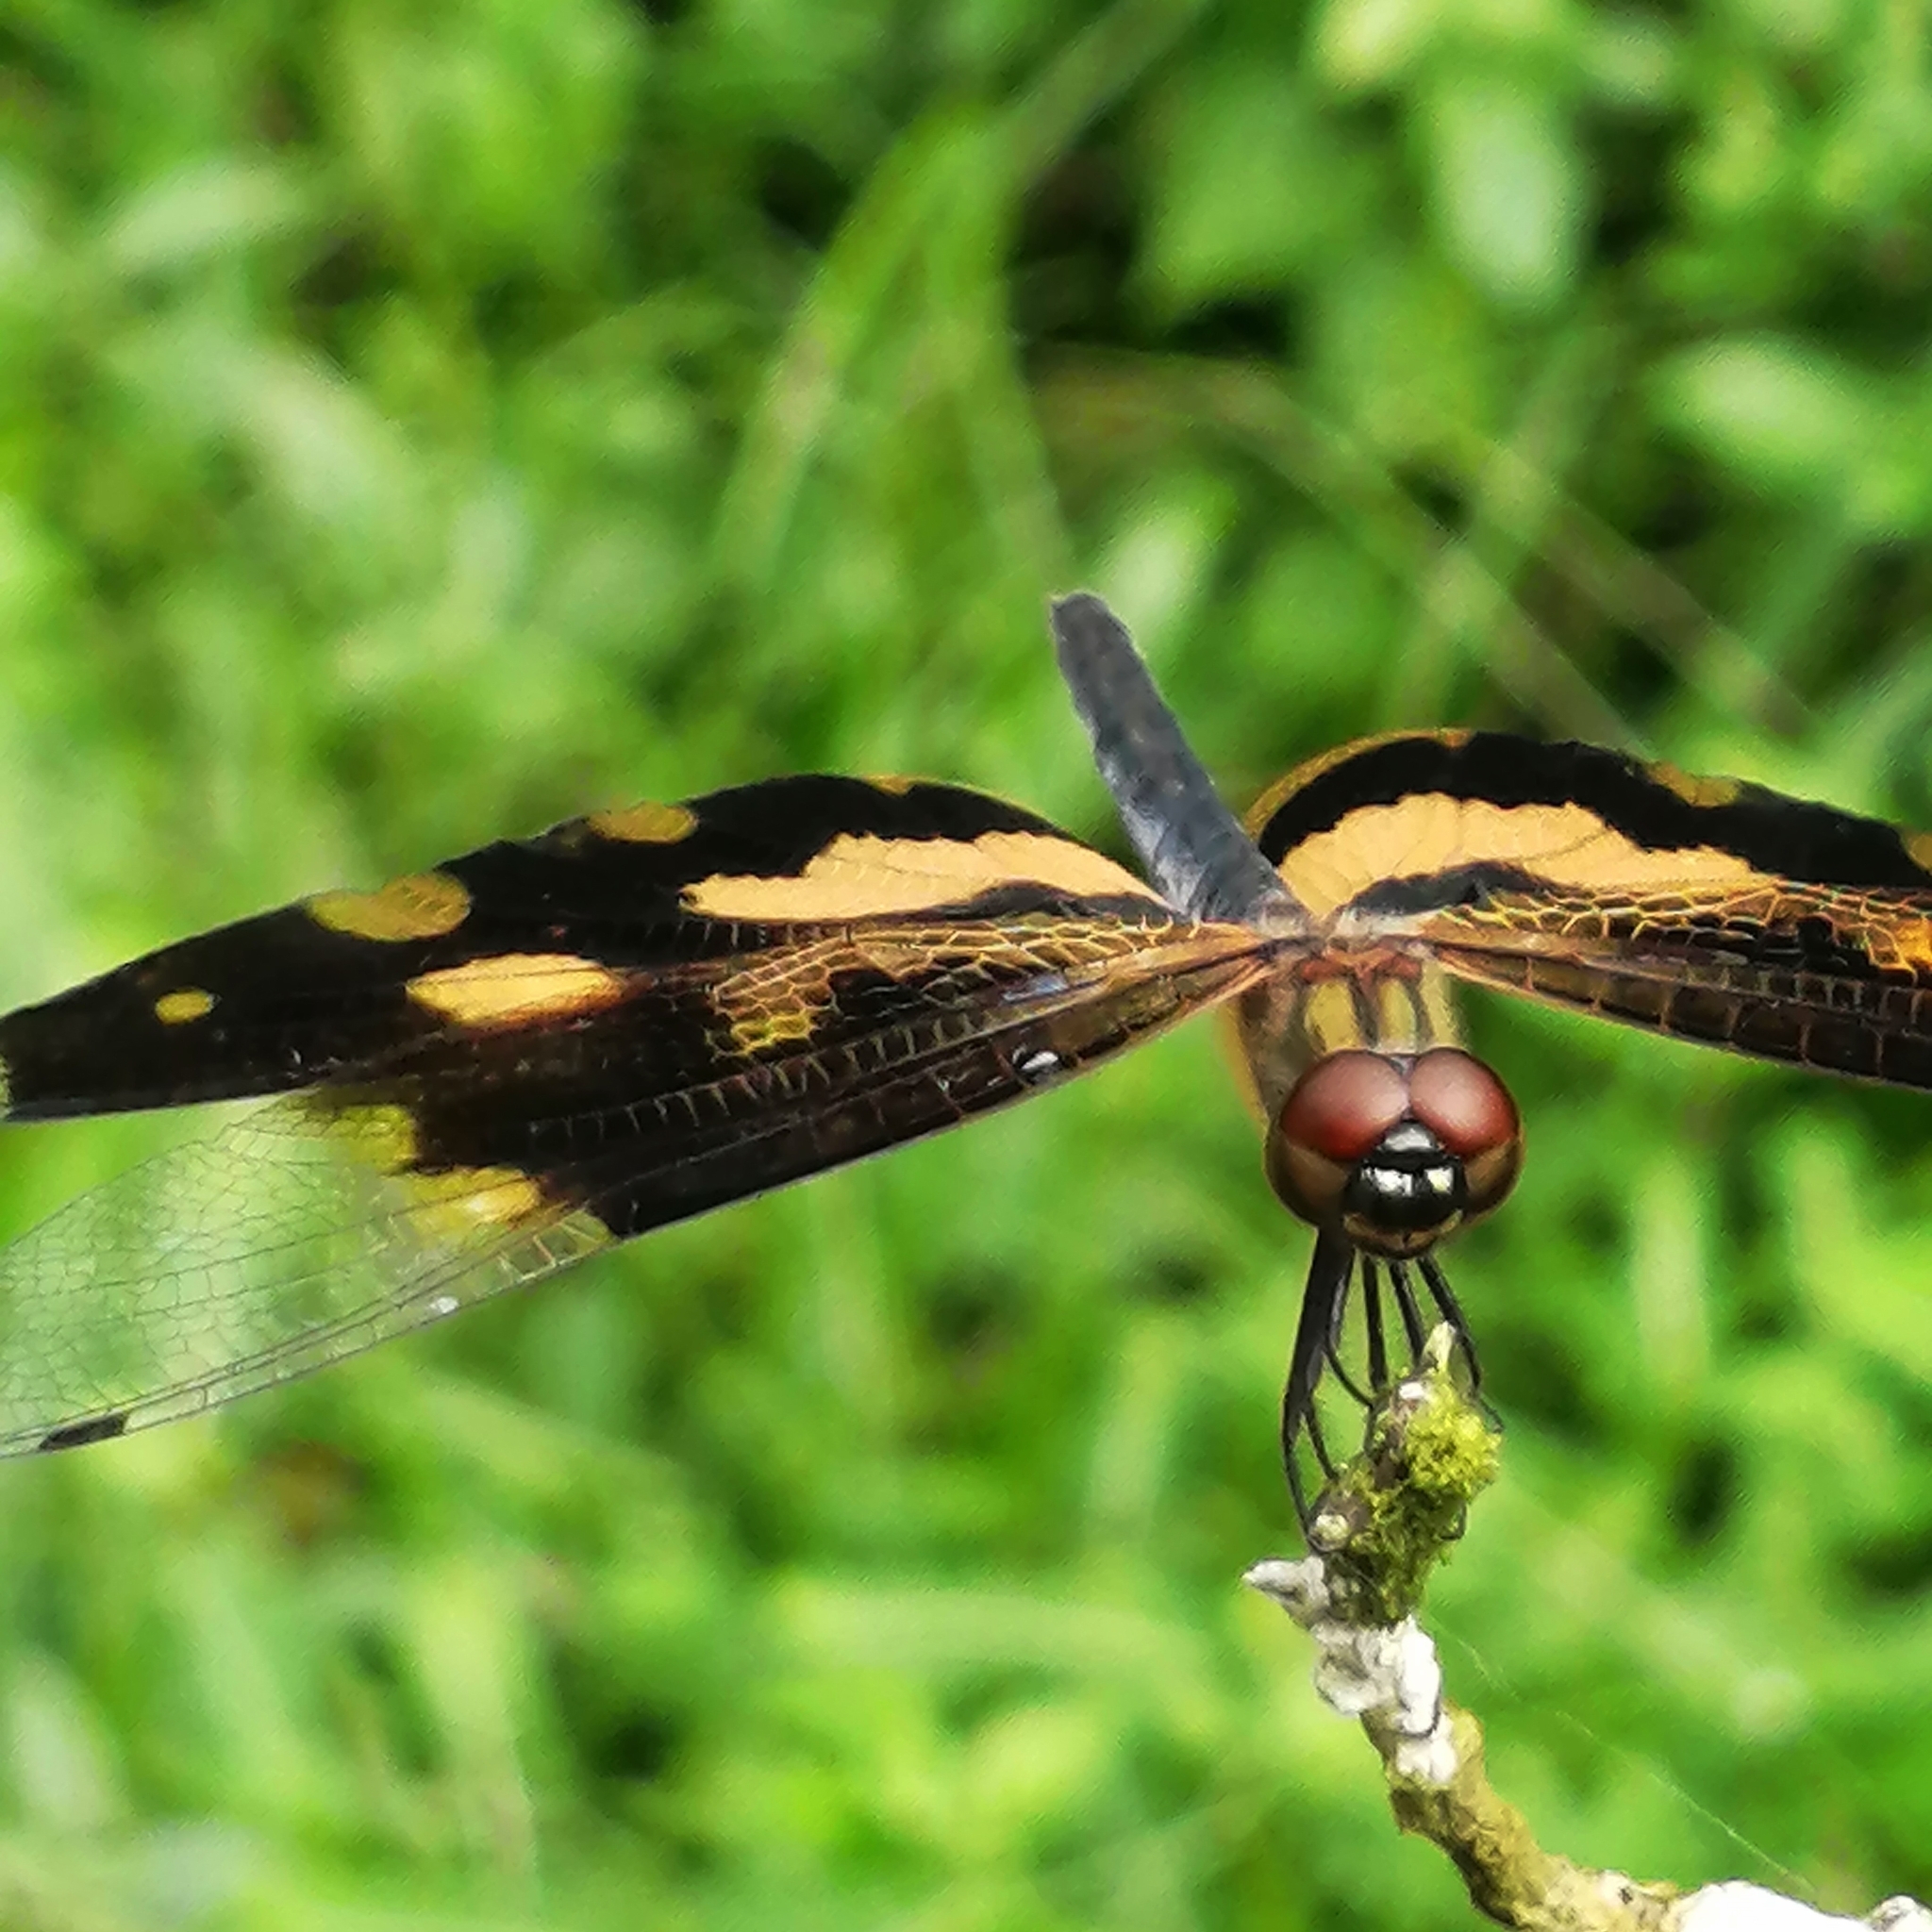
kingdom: Animalia
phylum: Arthropoda
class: Insecta
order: Odonata
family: Libellulidae
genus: Rhyothemis
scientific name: Rhyothemis variegata
